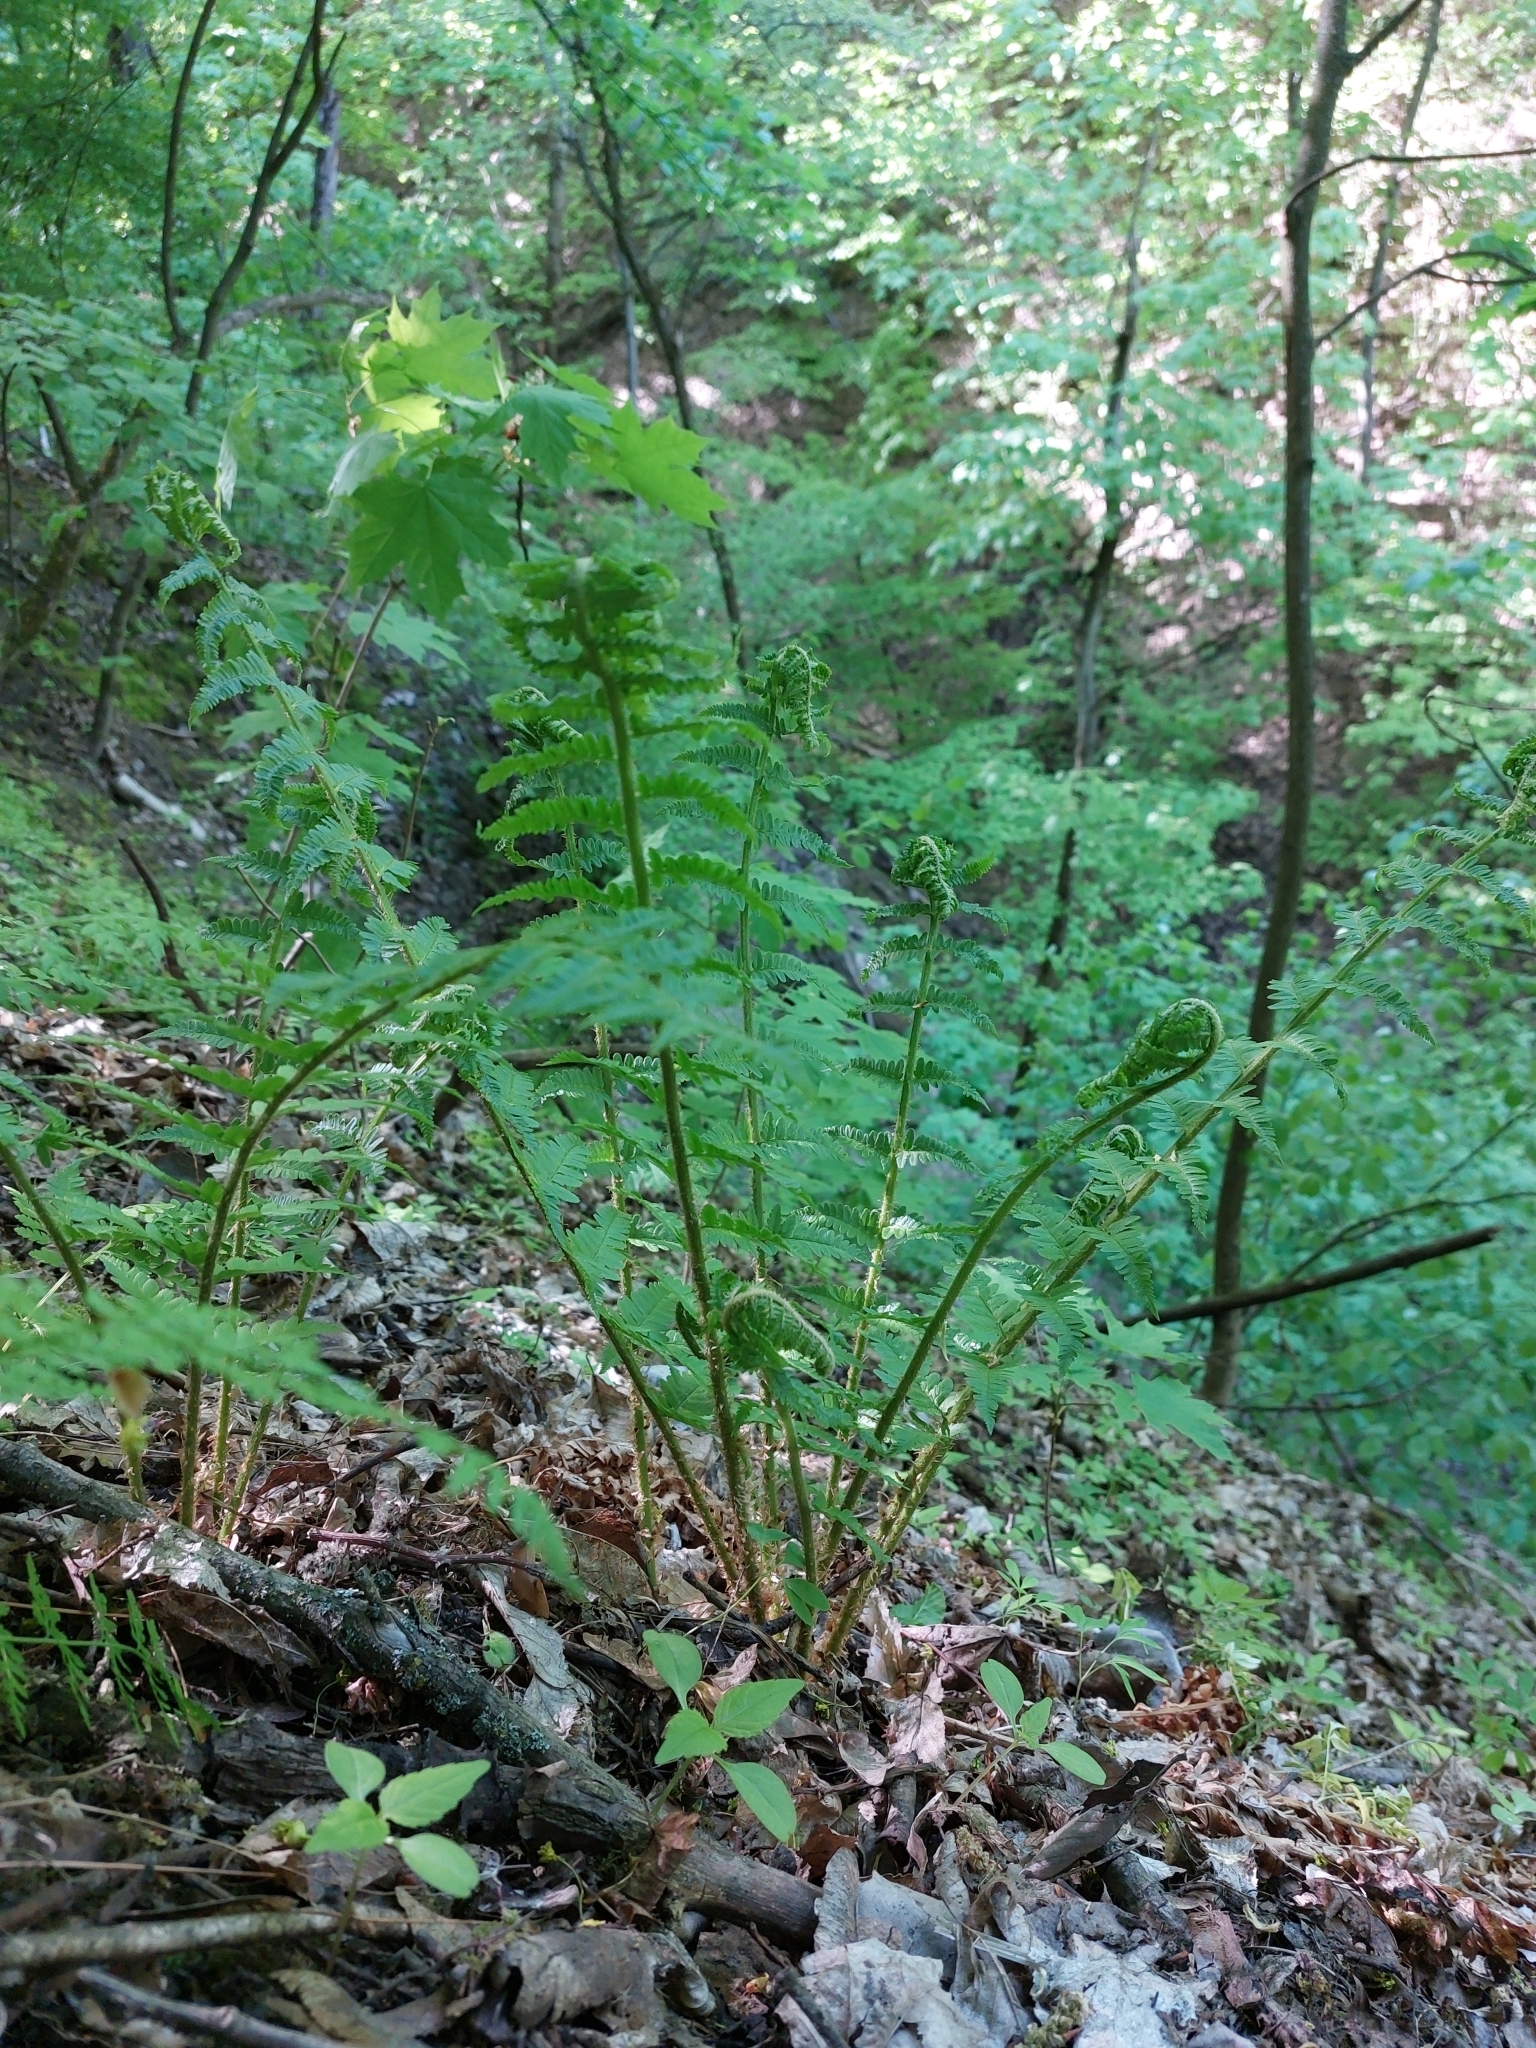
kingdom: Plantae
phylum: Tracheophyta
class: Polypodiopsida
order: Polypodiales
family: Dryopteridaceae
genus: Dryopteris
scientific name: Dryopteris filix-mas
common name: Male fern
